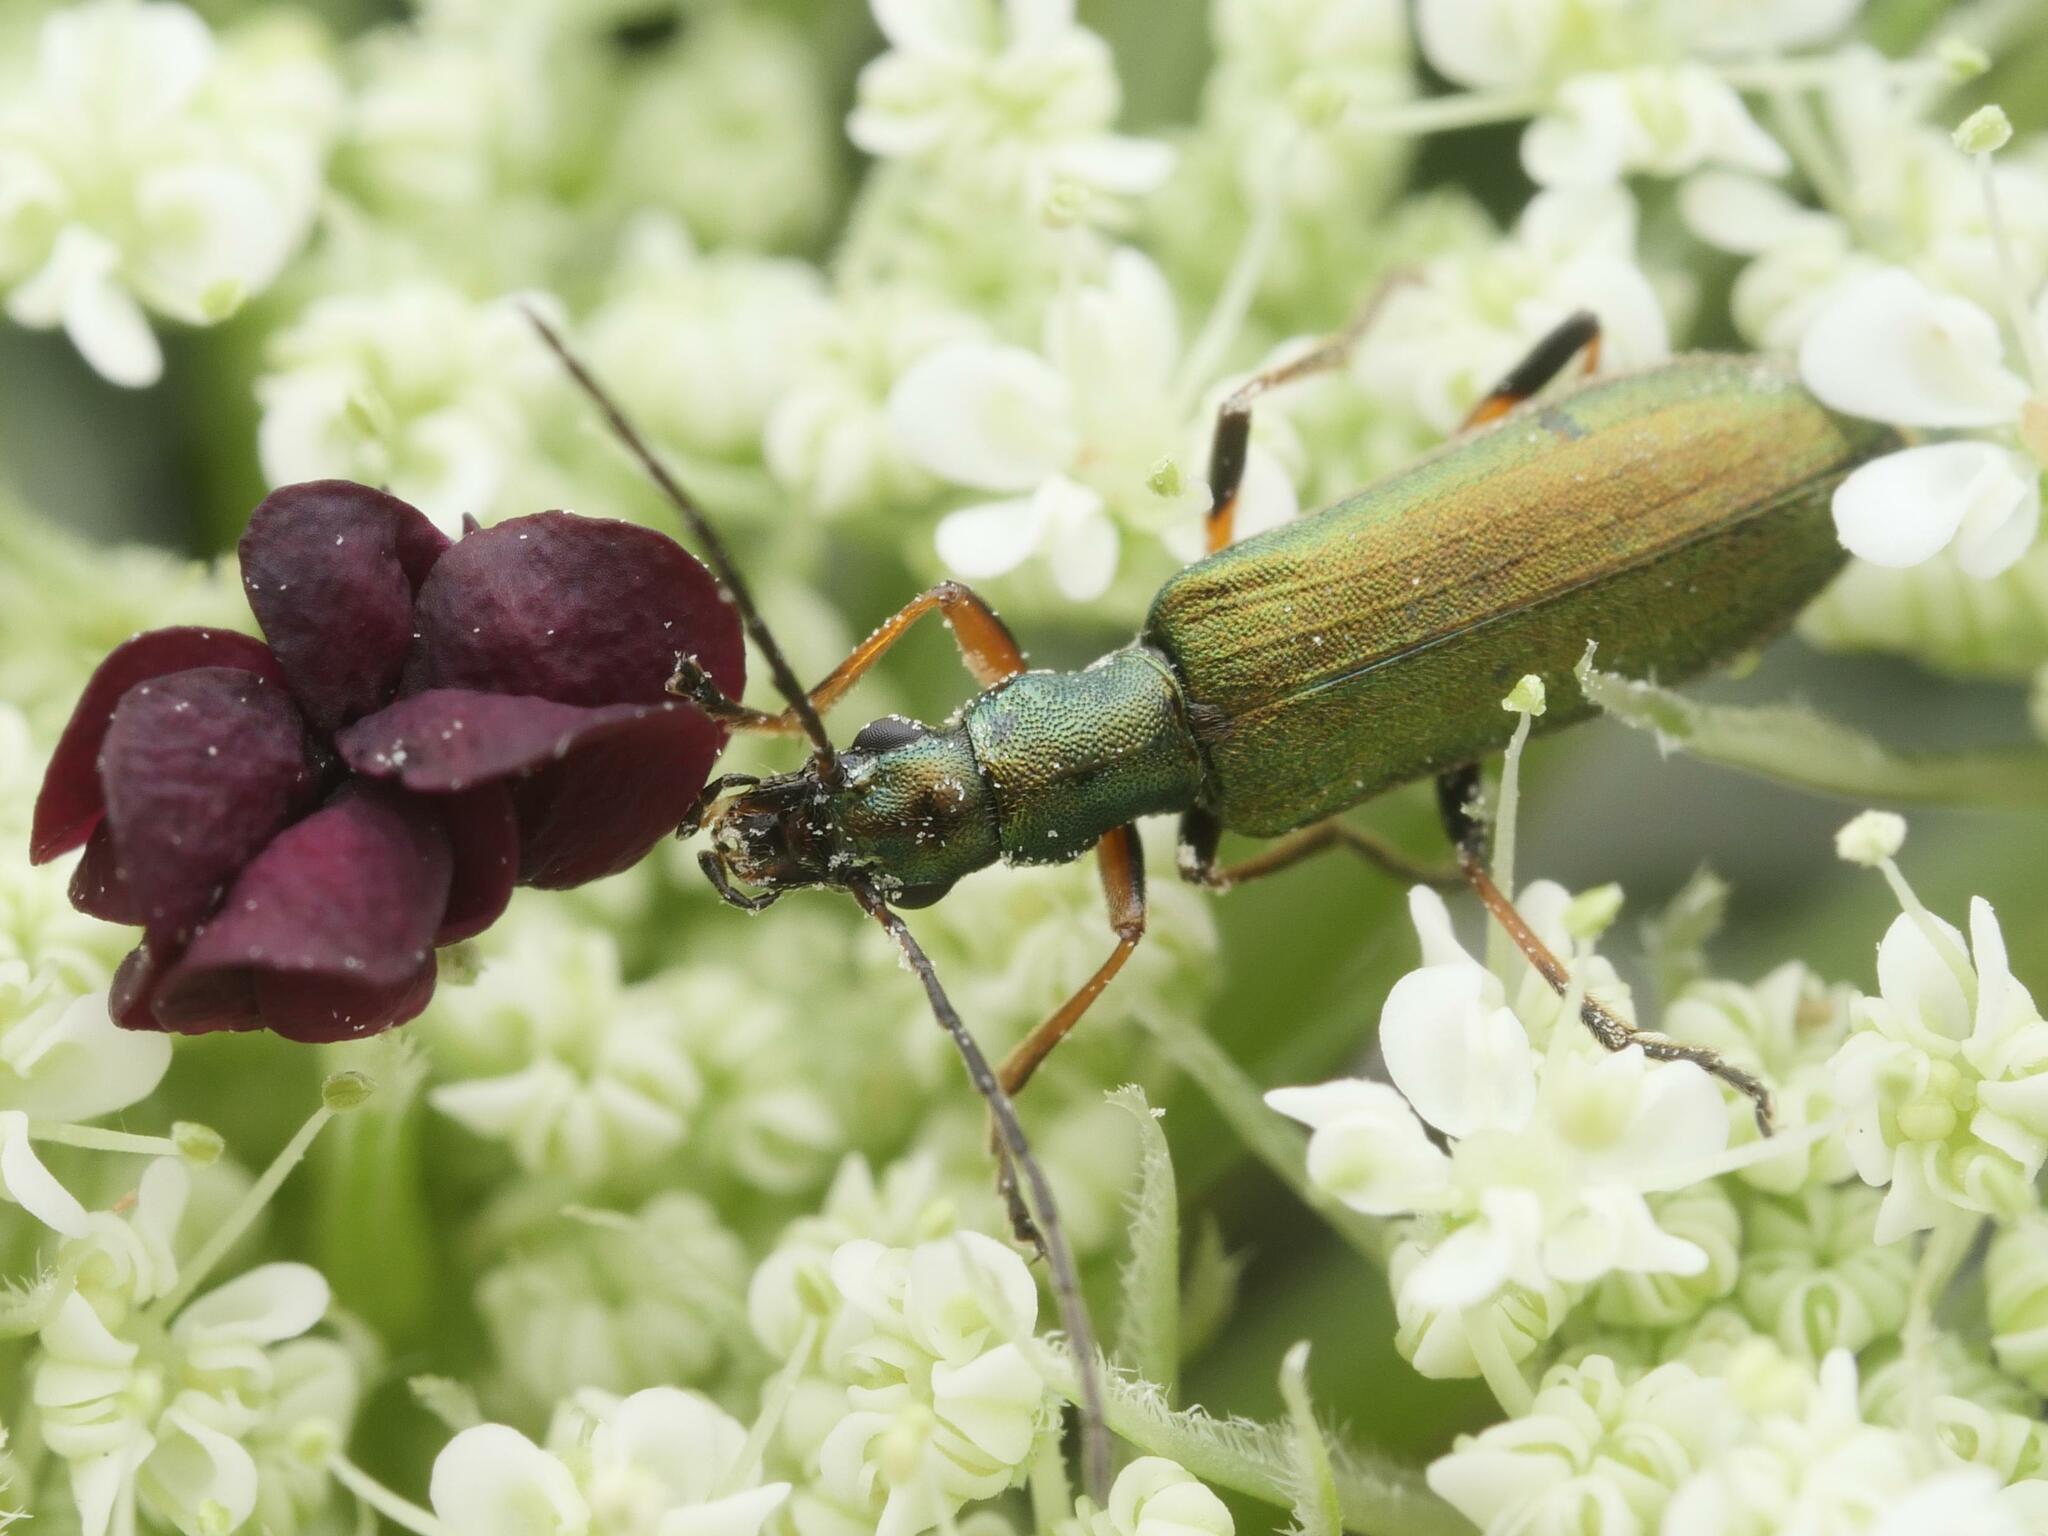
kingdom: Animalia
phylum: Arthropoda
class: Insecta
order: Coleoptera
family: Oedemeridae
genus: Chrysanthia
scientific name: Chrysanthia geniculata
